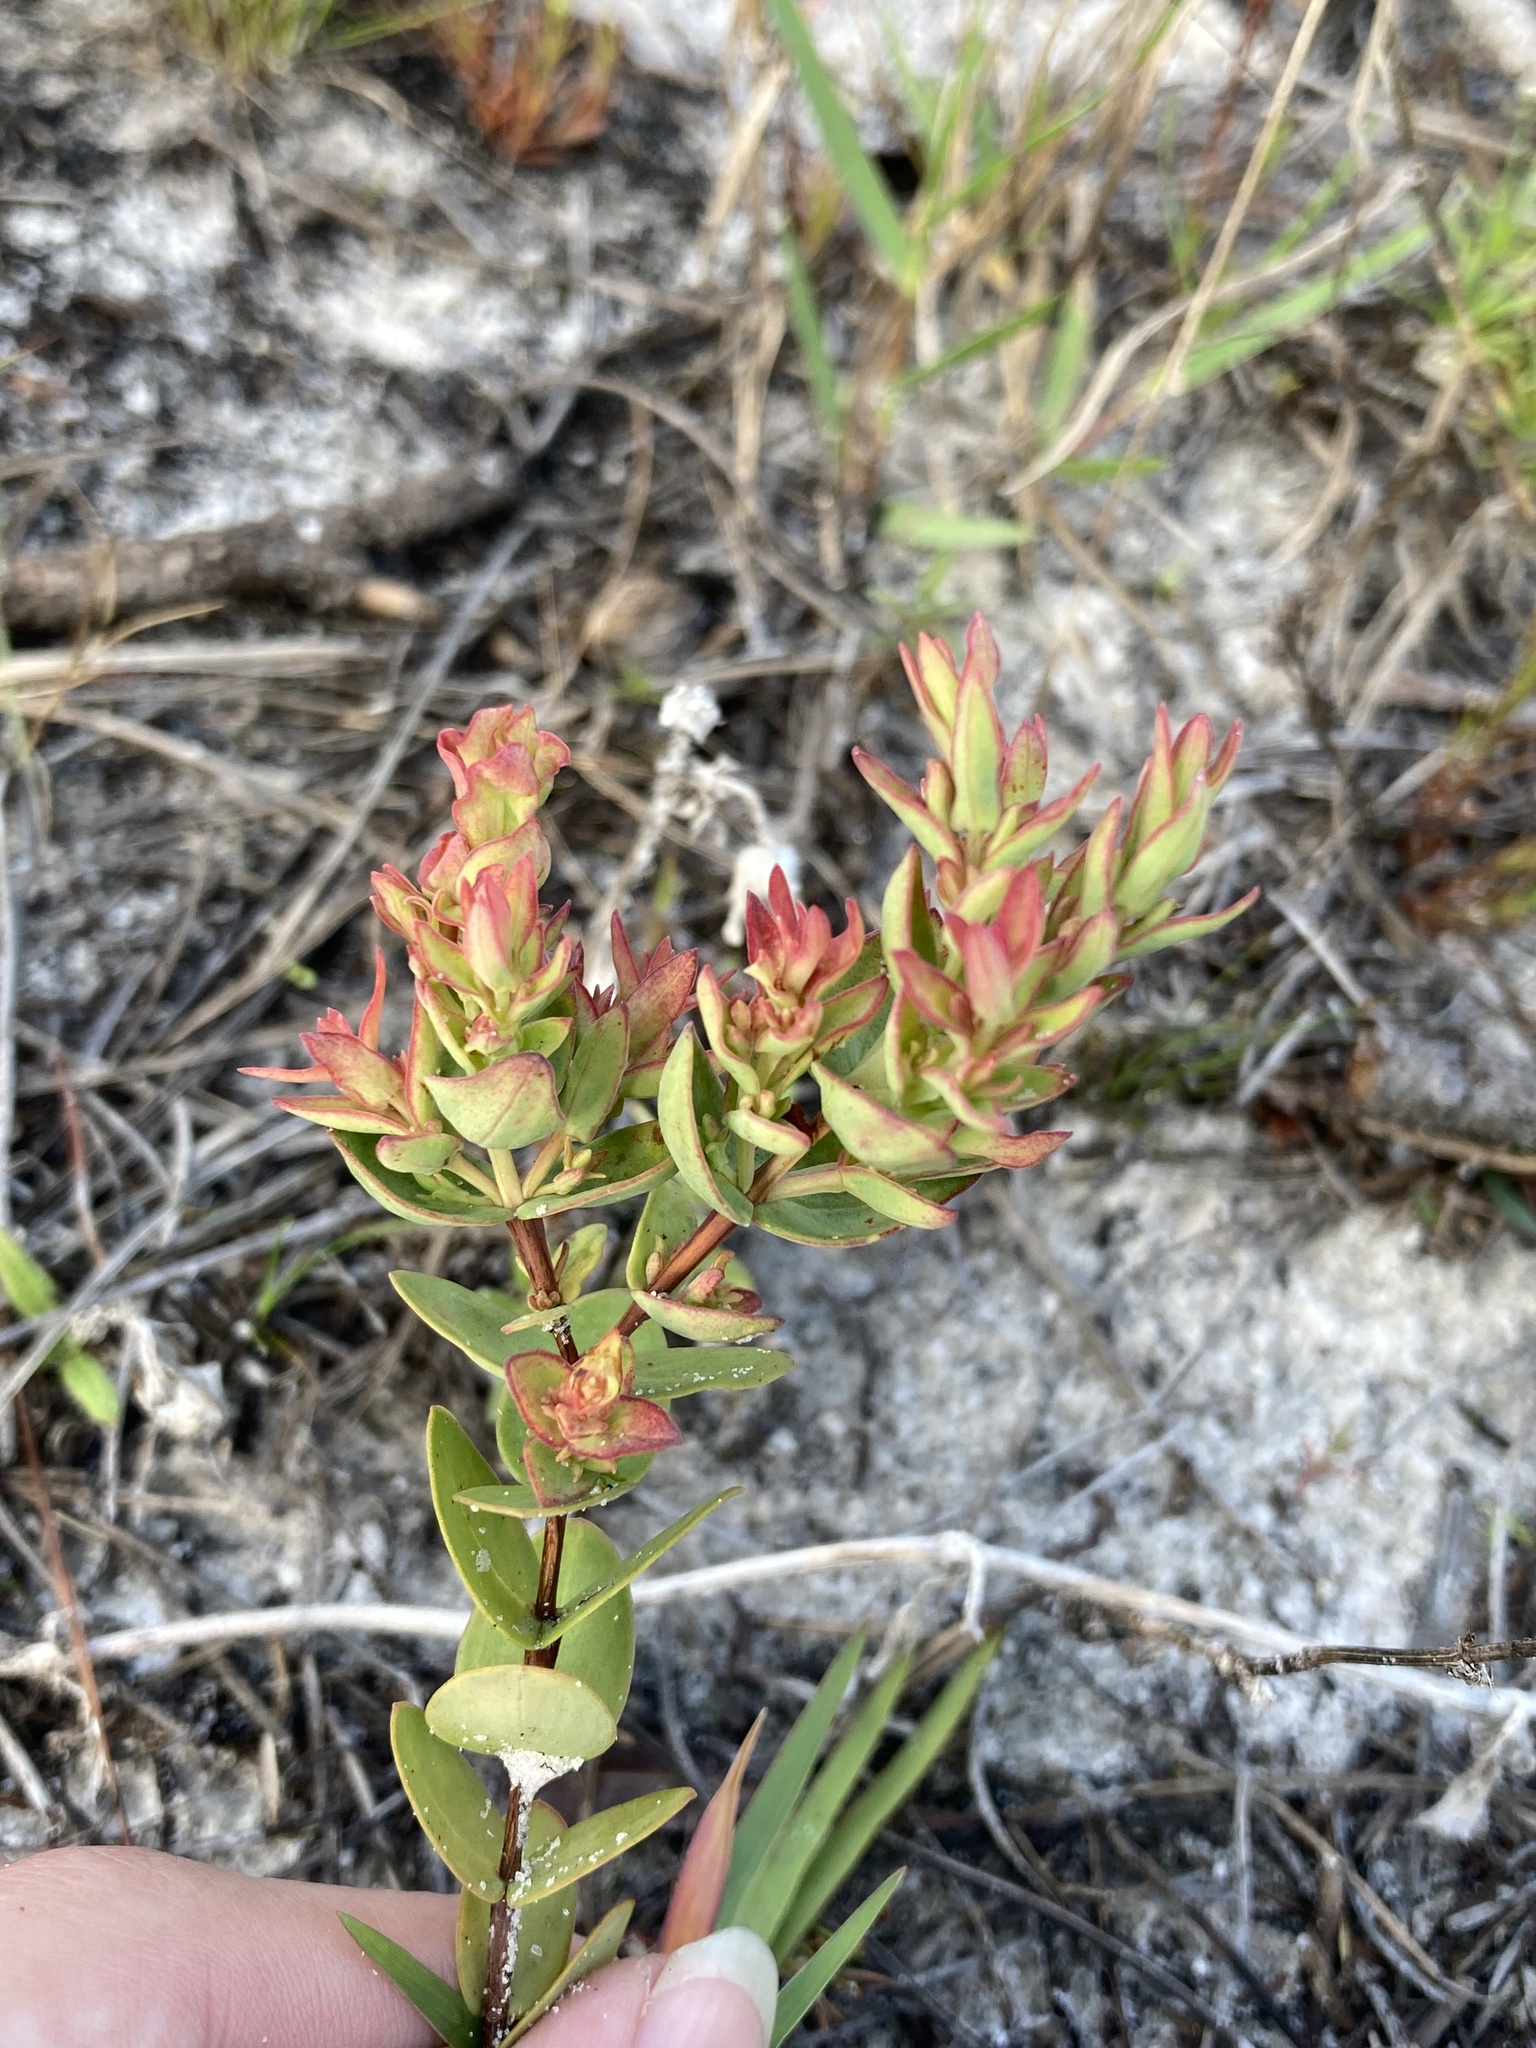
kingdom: Plantae
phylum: Tracheophyta
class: Magnoliopsida
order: Malpighiales
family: Hypericaceae
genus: Hypericum
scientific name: Hypericum tetrapetalum
